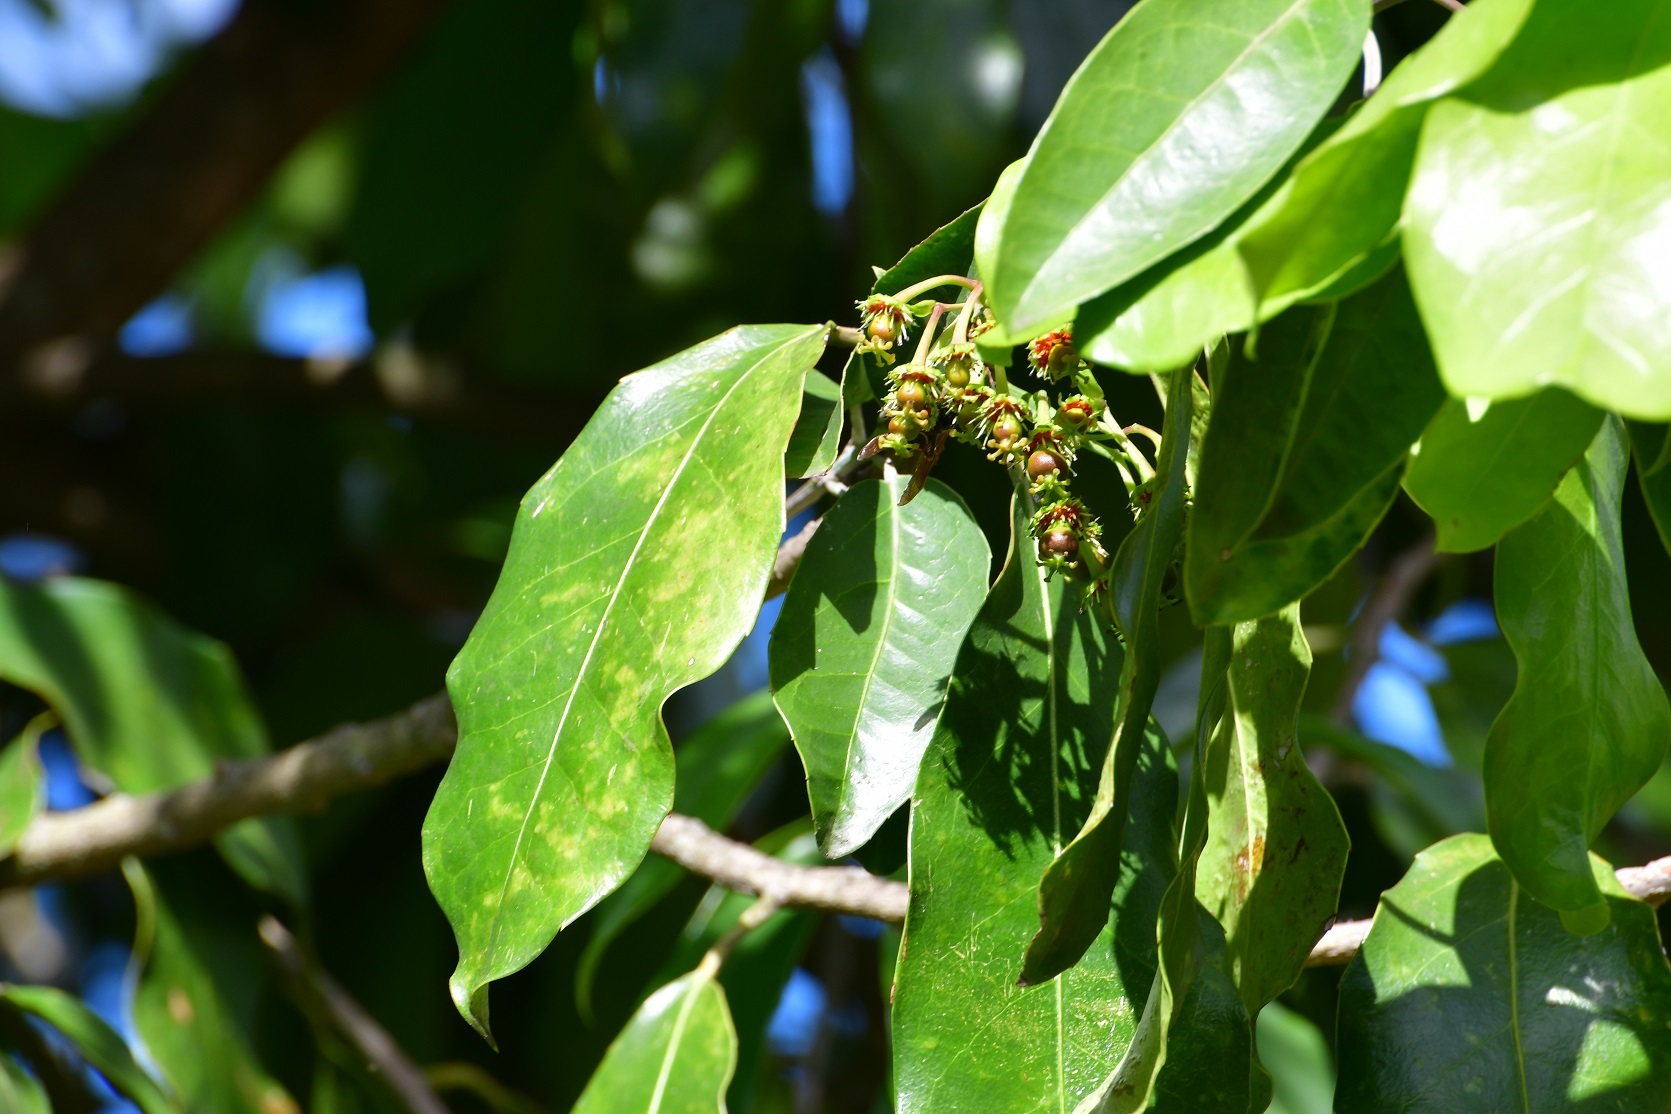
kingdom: Plantae
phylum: Tracheophyta
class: Magnoliopsida
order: Malpighiales
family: Salicaceae
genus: Olmediella
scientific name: Olmediella betschleriana
